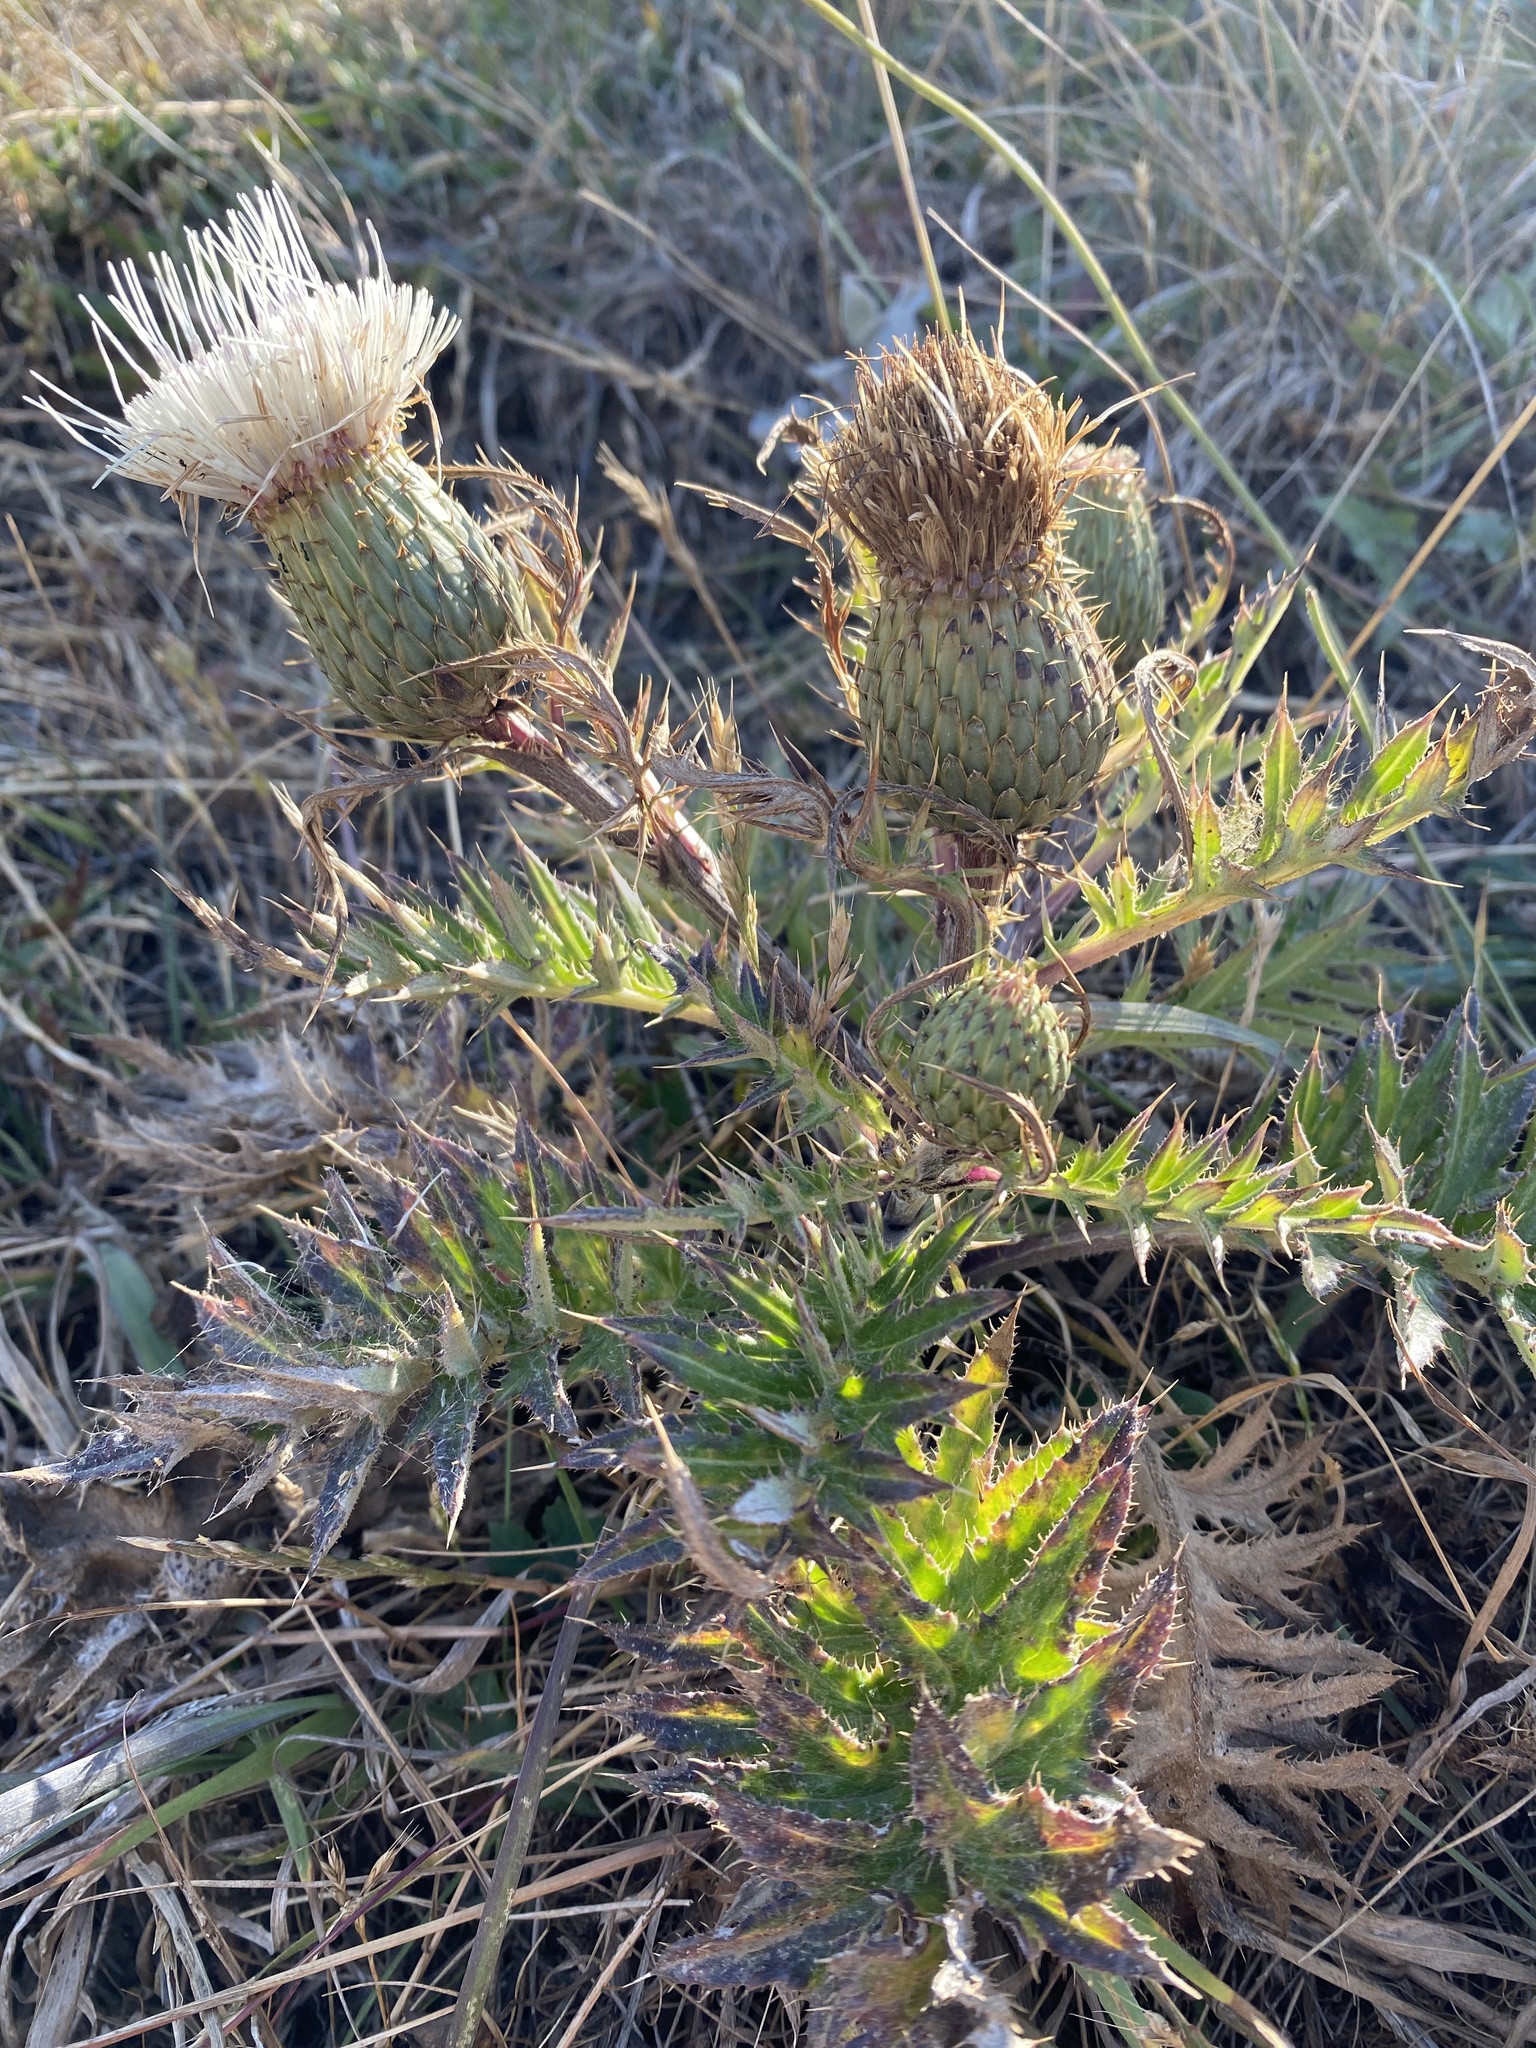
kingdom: Plantae
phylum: Tracheophyta
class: Magnoliopsida
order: Asterales
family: Asteraceae
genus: Cirsium
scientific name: Cirsium quercetorum
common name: Alameda county thistle
